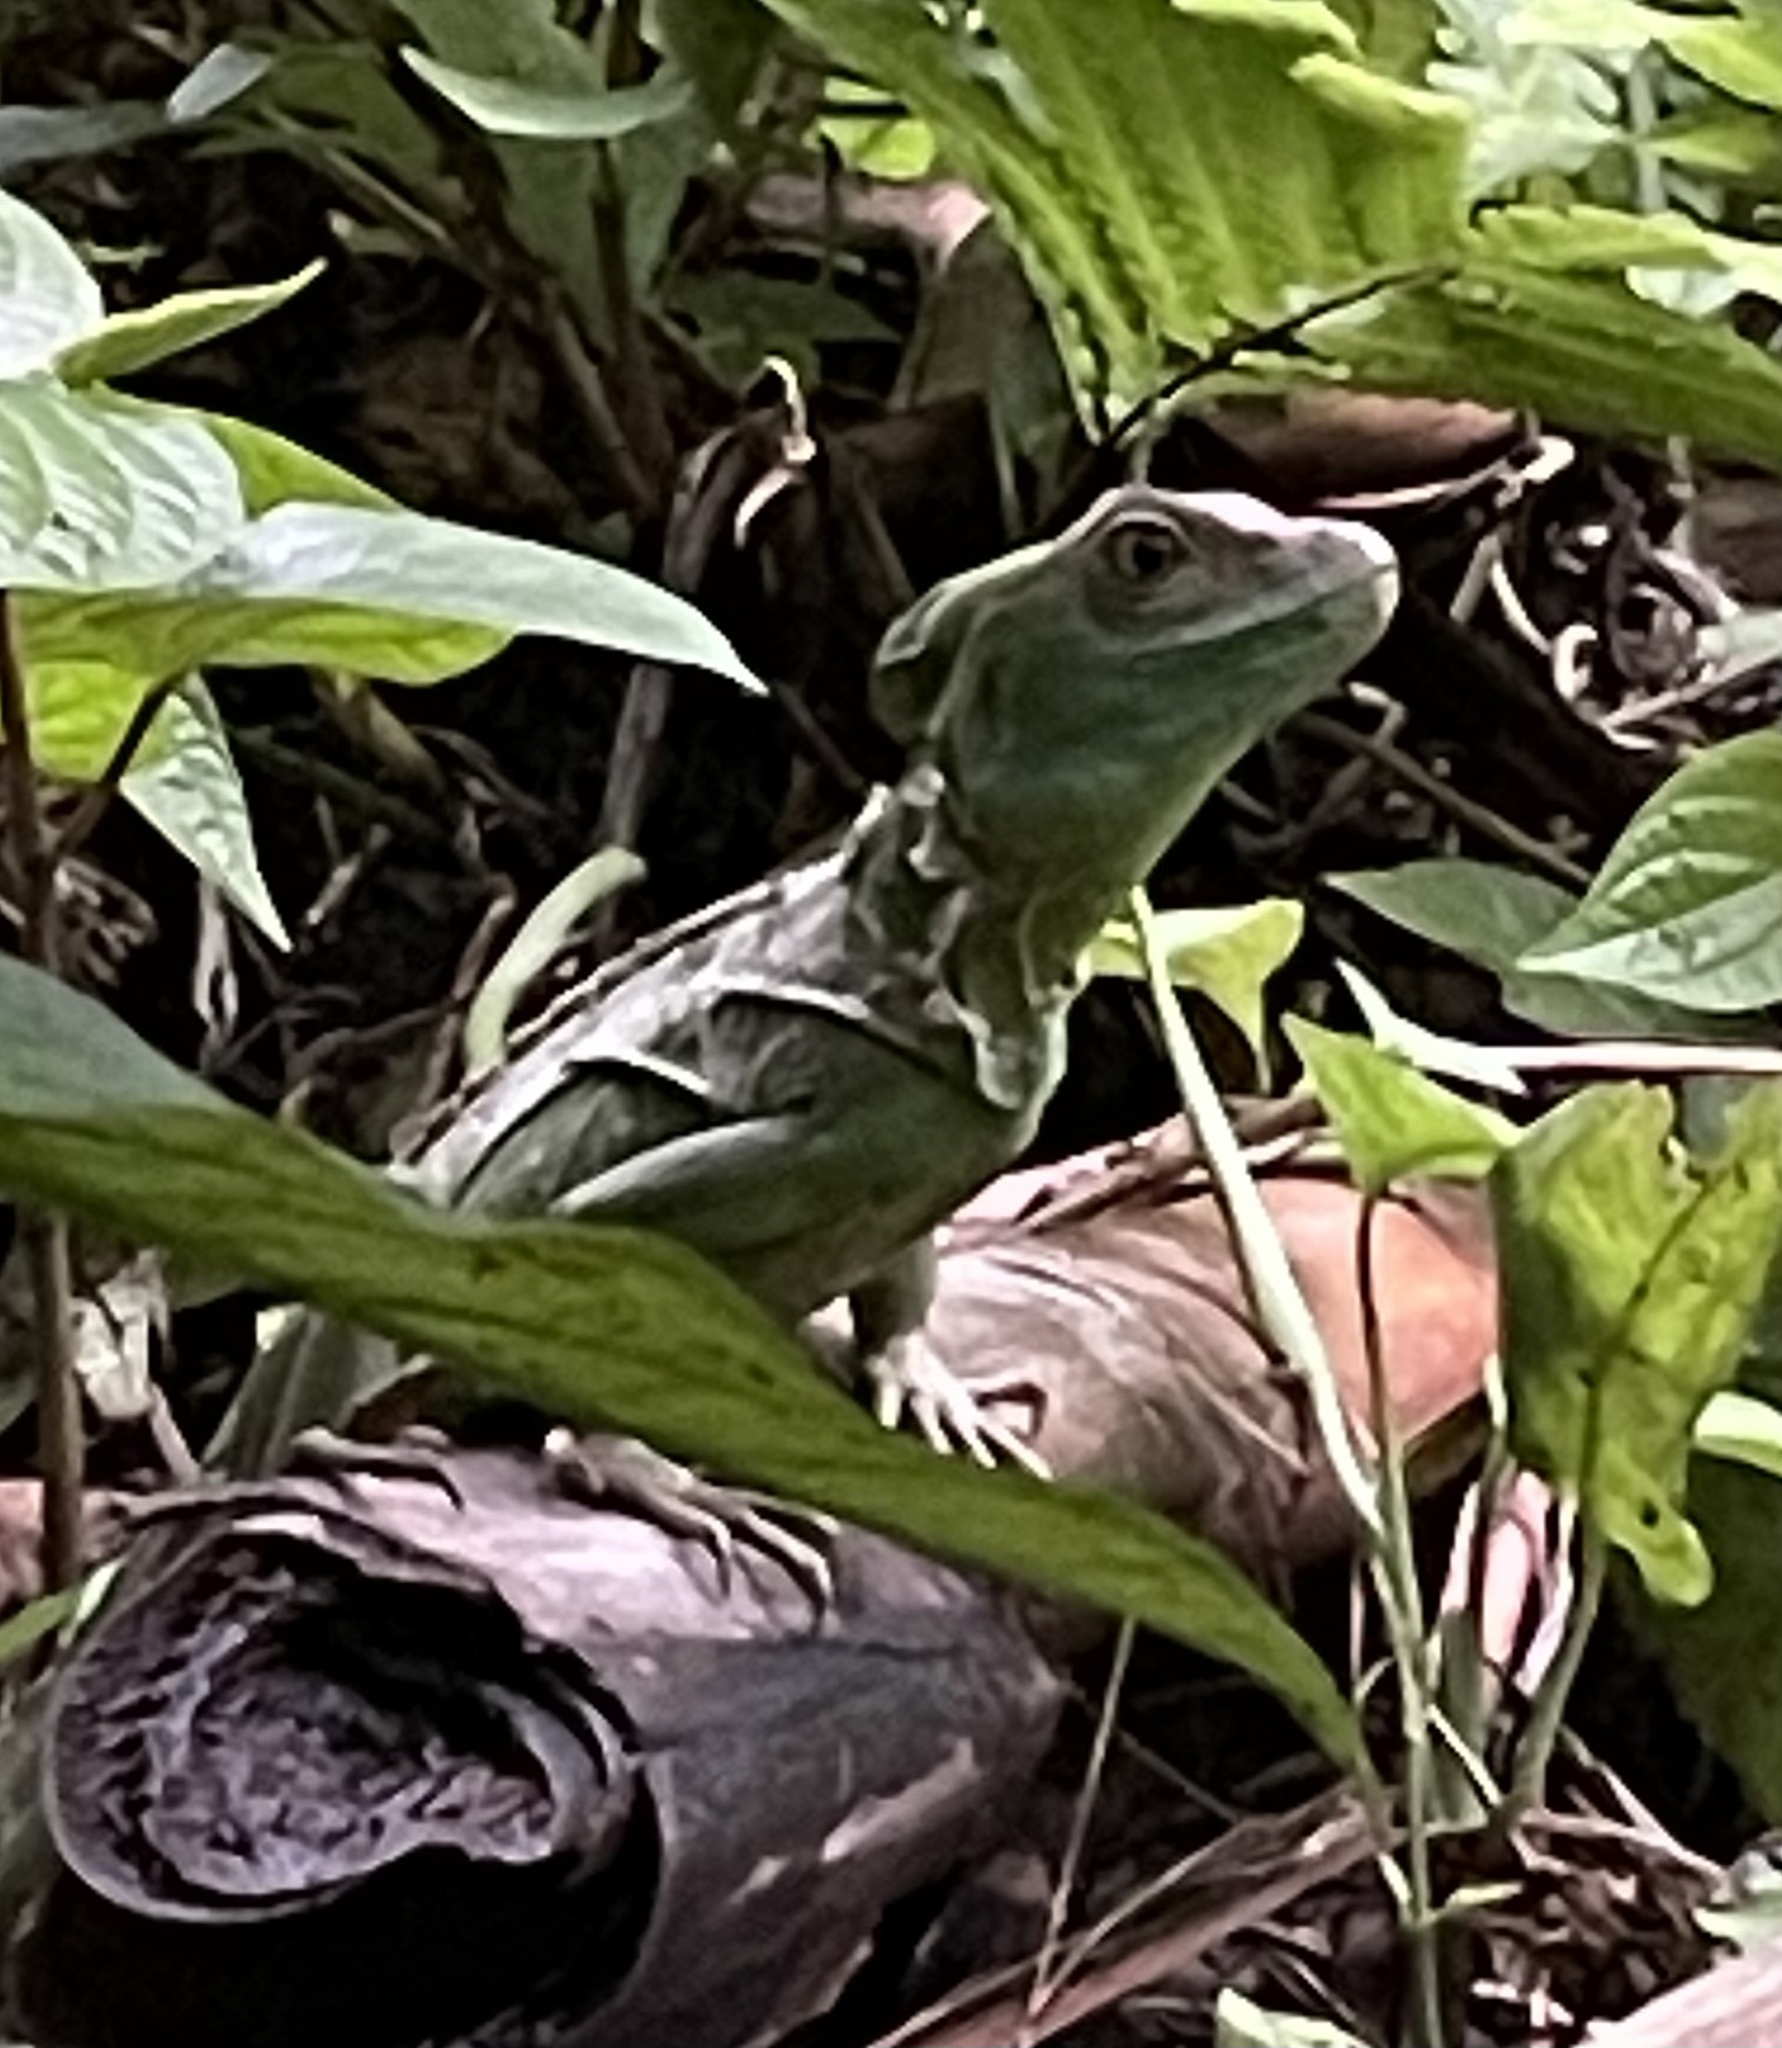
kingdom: Animalia
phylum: Chordata
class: Squamata
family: Corytophanidae
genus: Basiliscus
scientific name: Basiliscus plumifrons
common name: Green basilisk
